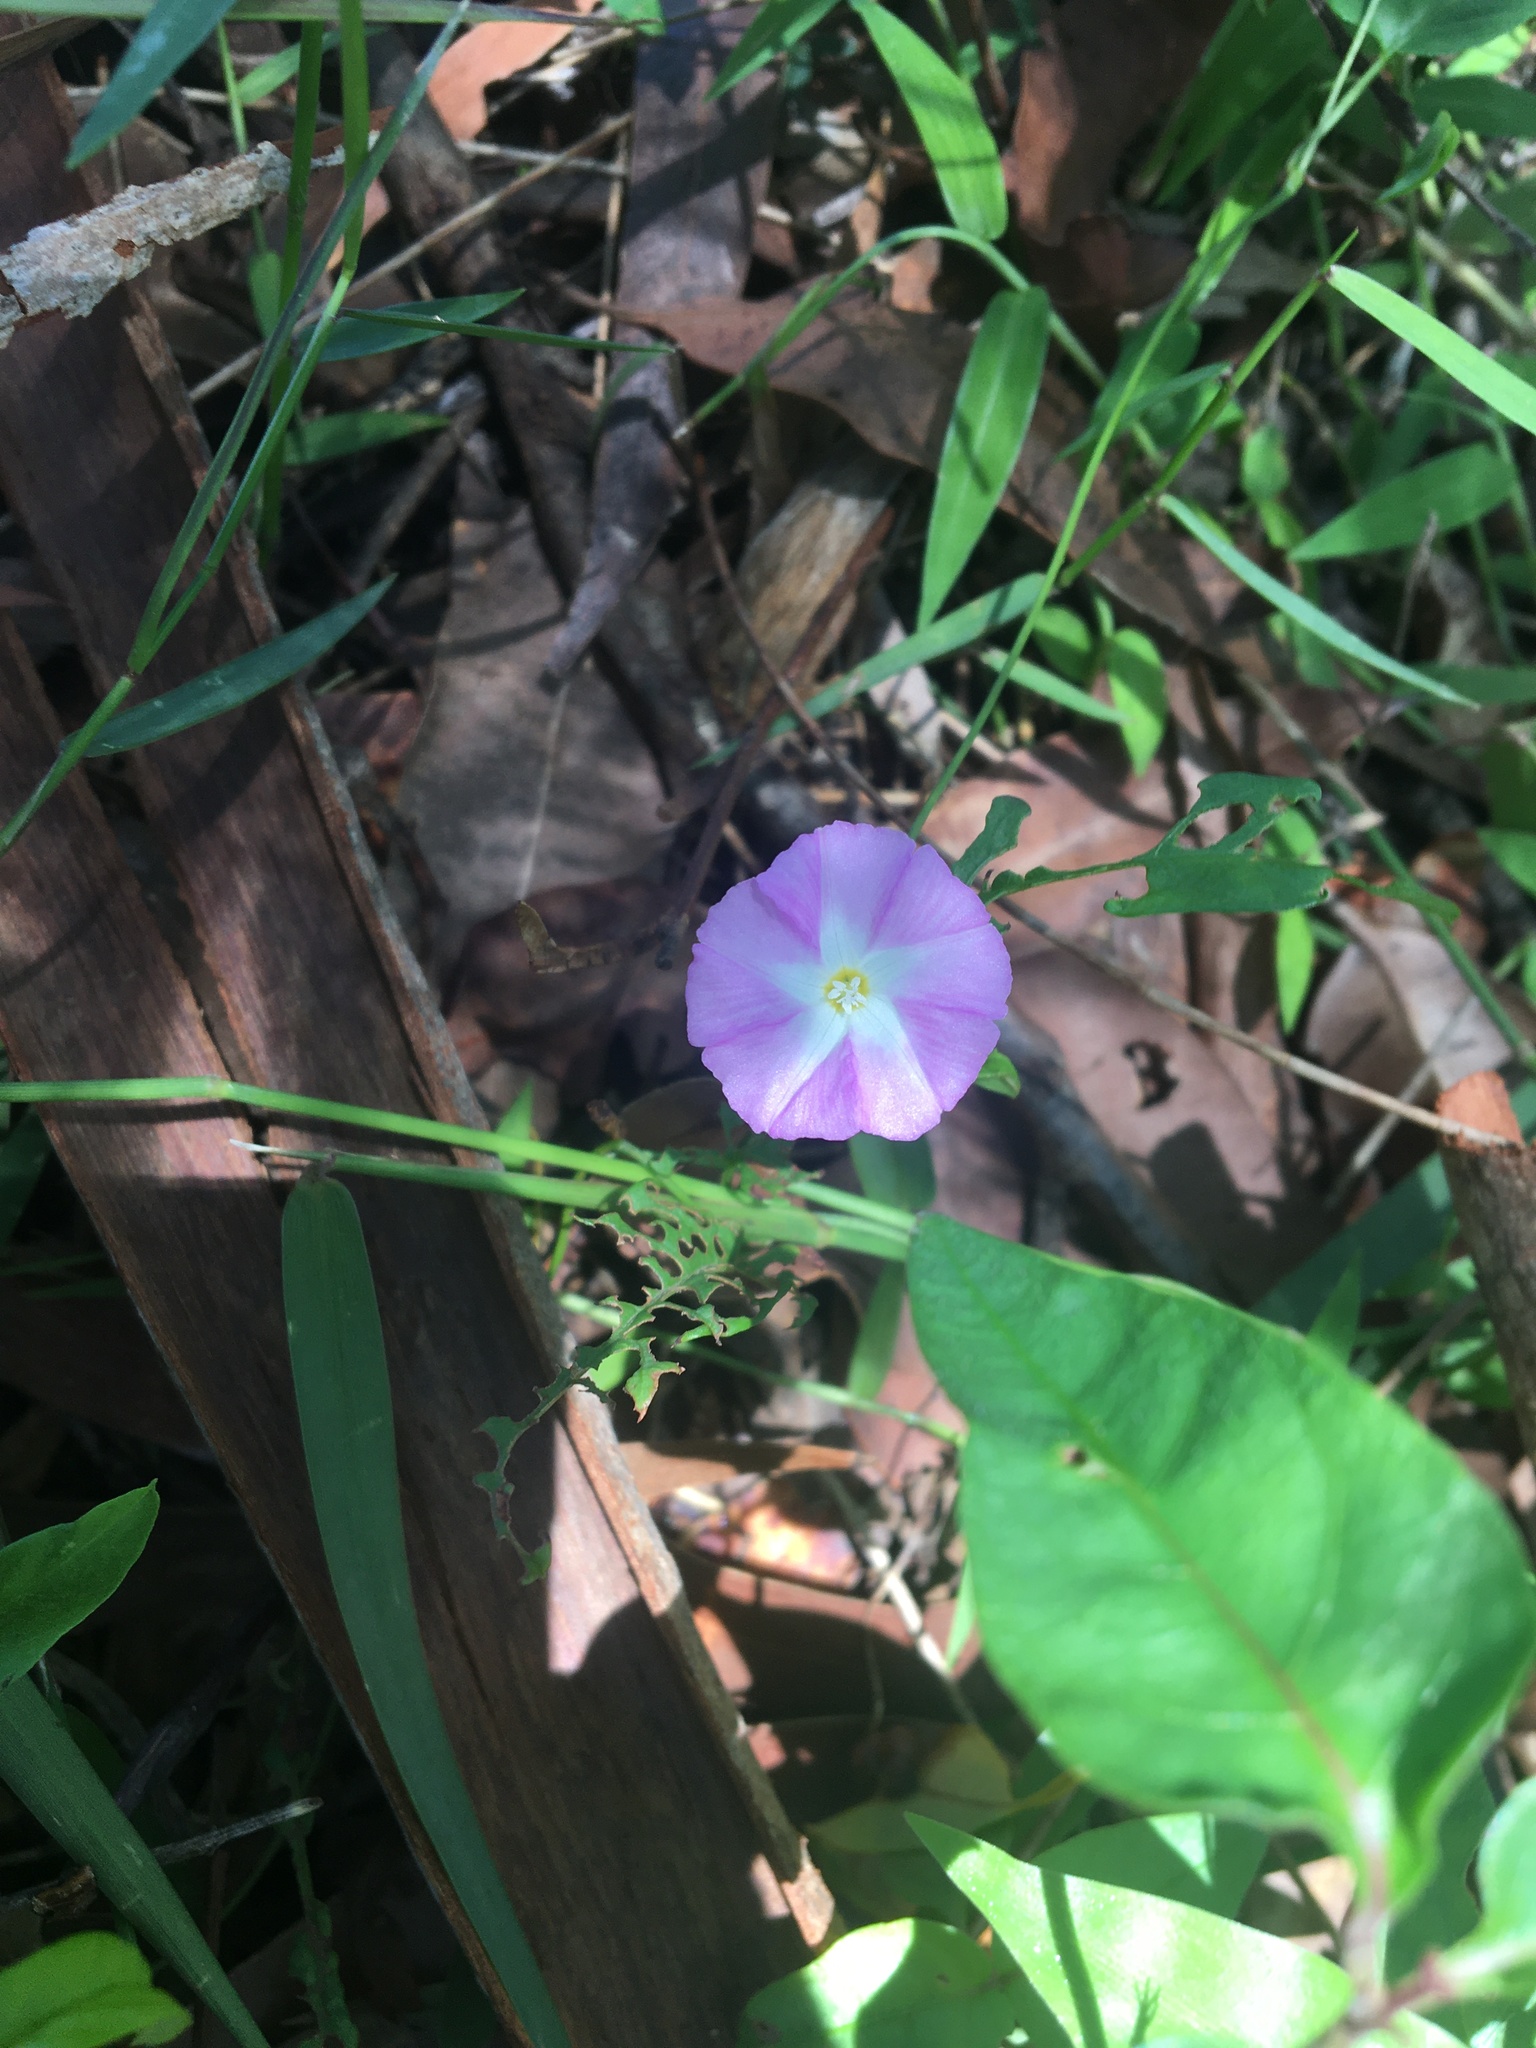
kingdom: Plantae
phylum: Tracheophyta
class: Magnoliopsida
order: Solanales
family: Convolvulaceae
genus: Polymeria
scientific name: Polymeria calycina
